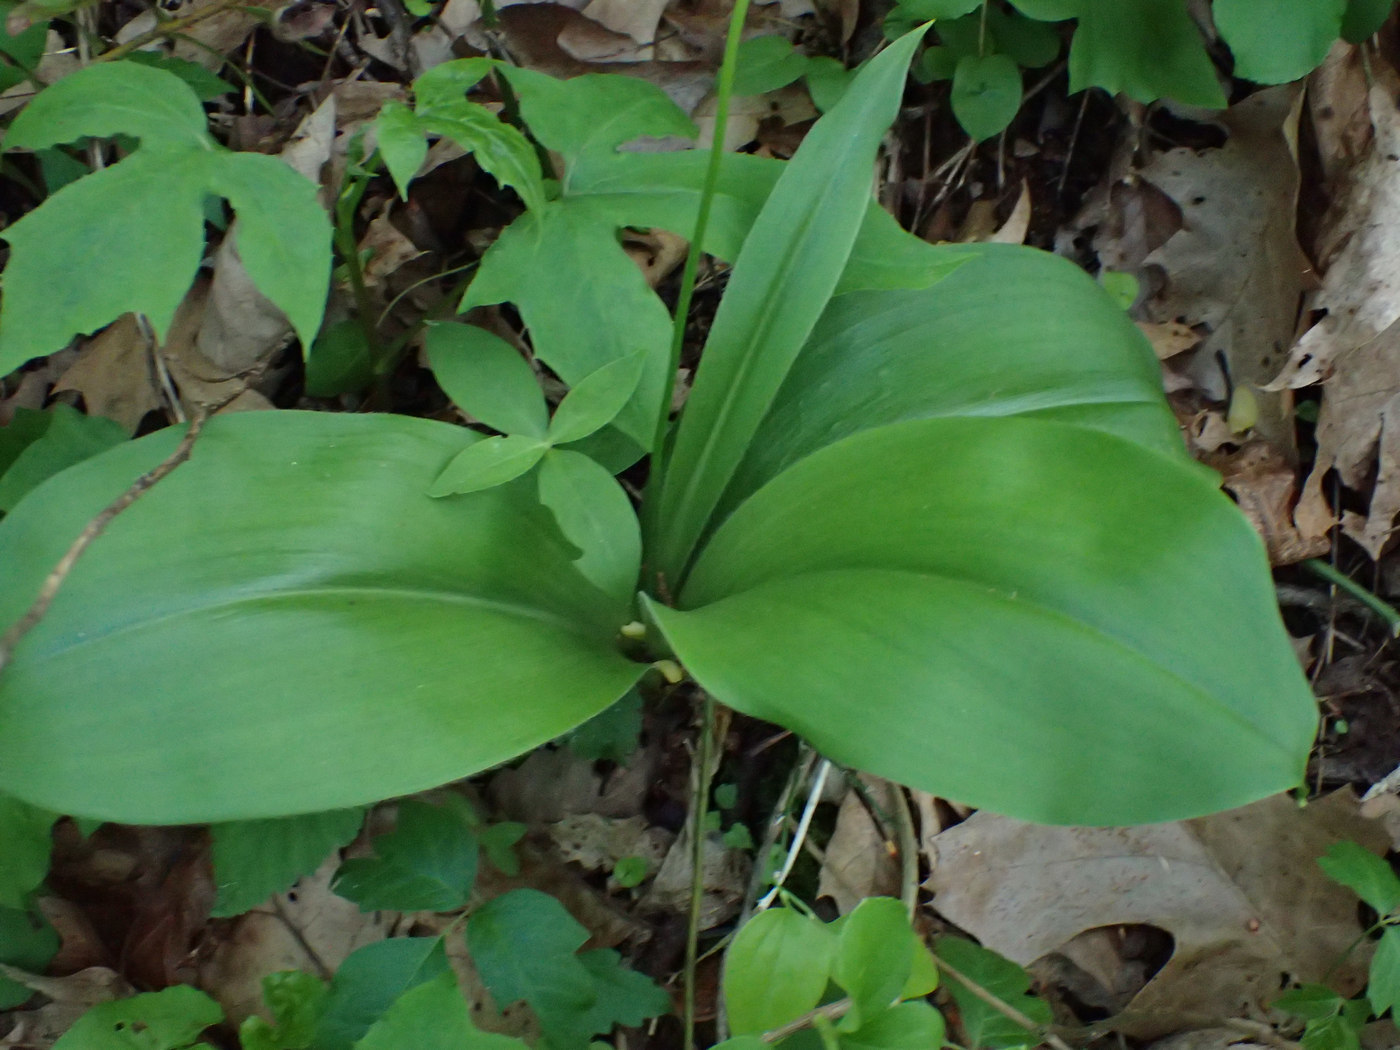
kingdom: Plantae
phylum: Tracheophyta
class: Liliopsida
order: Liliales
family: Liliaceae
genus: Clintonia
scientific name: Clintonia umbellulata
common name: Speckle wood-lily
